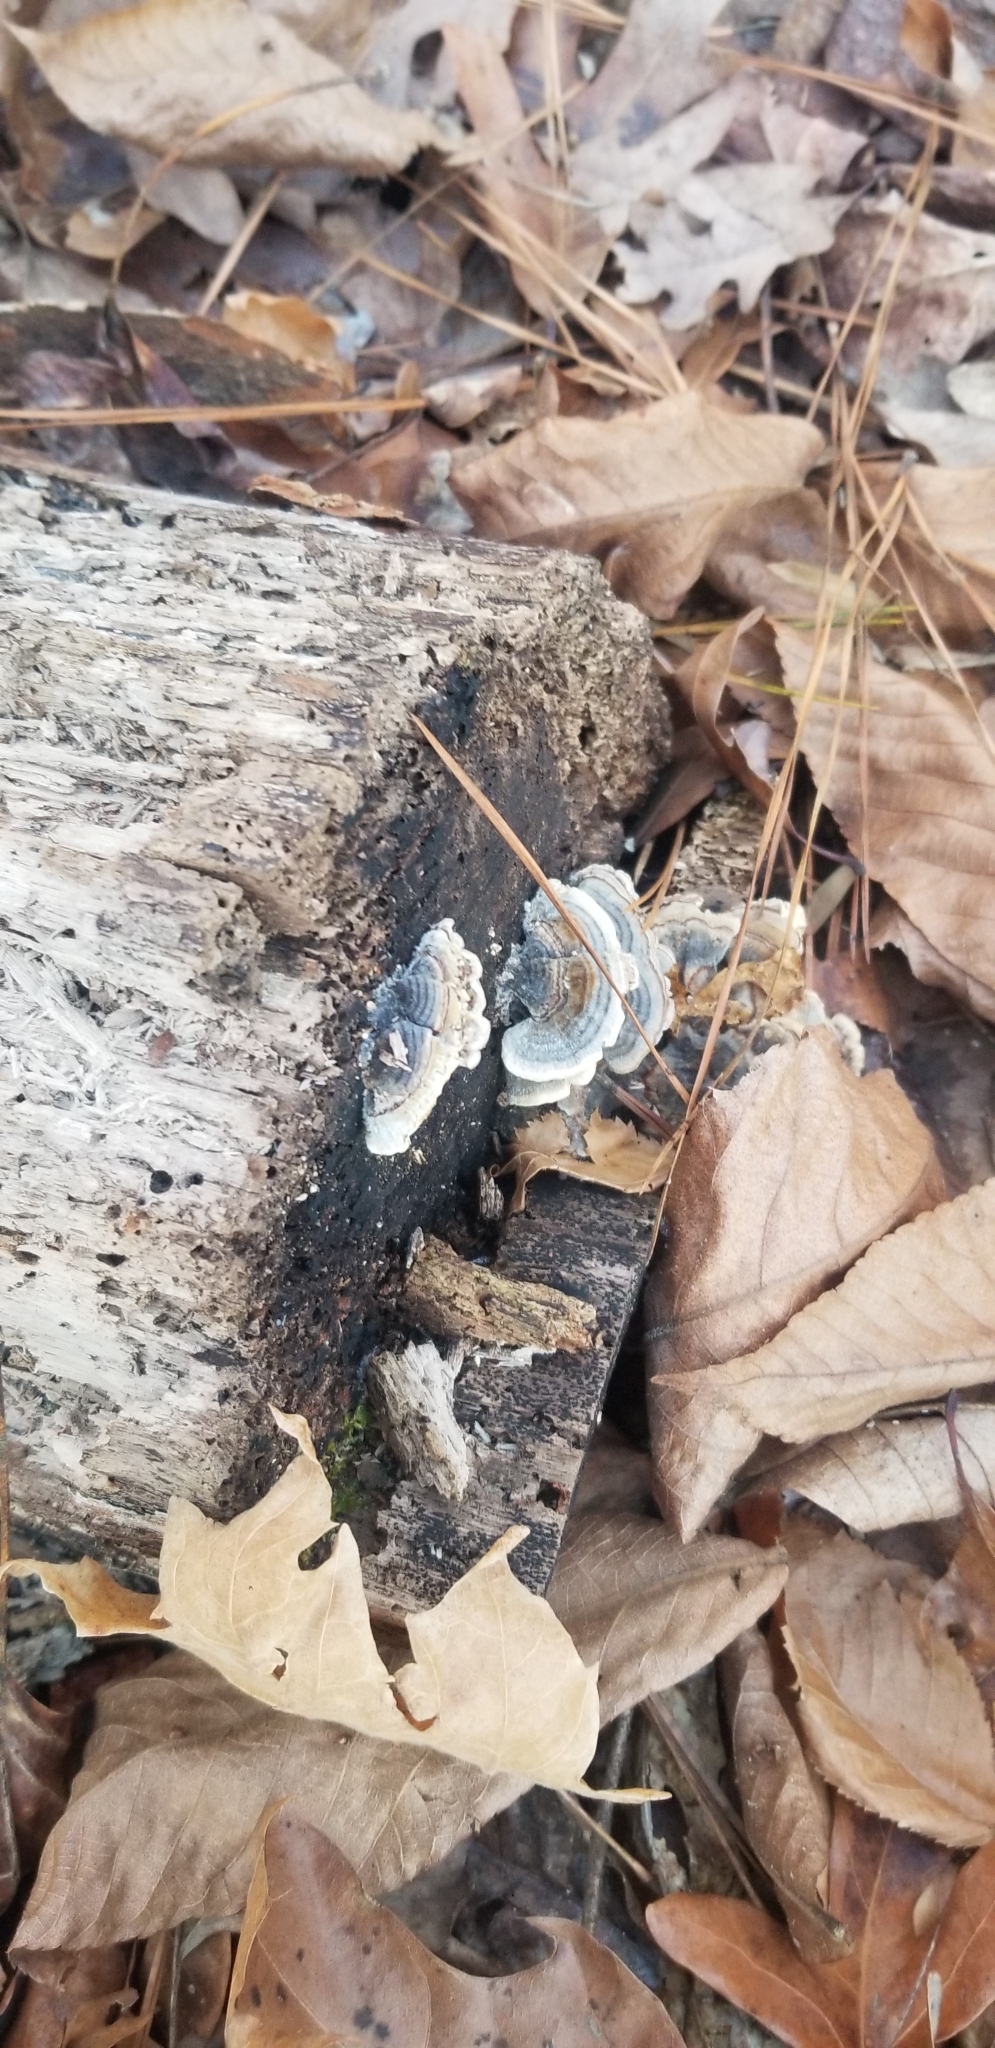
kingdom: Fungi
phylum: Basidiomycota
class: Agaricomycetes
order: Polyporales
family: Polyporaceae
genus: Trametes
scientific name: Trametes versicolor
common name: Turkeytail
